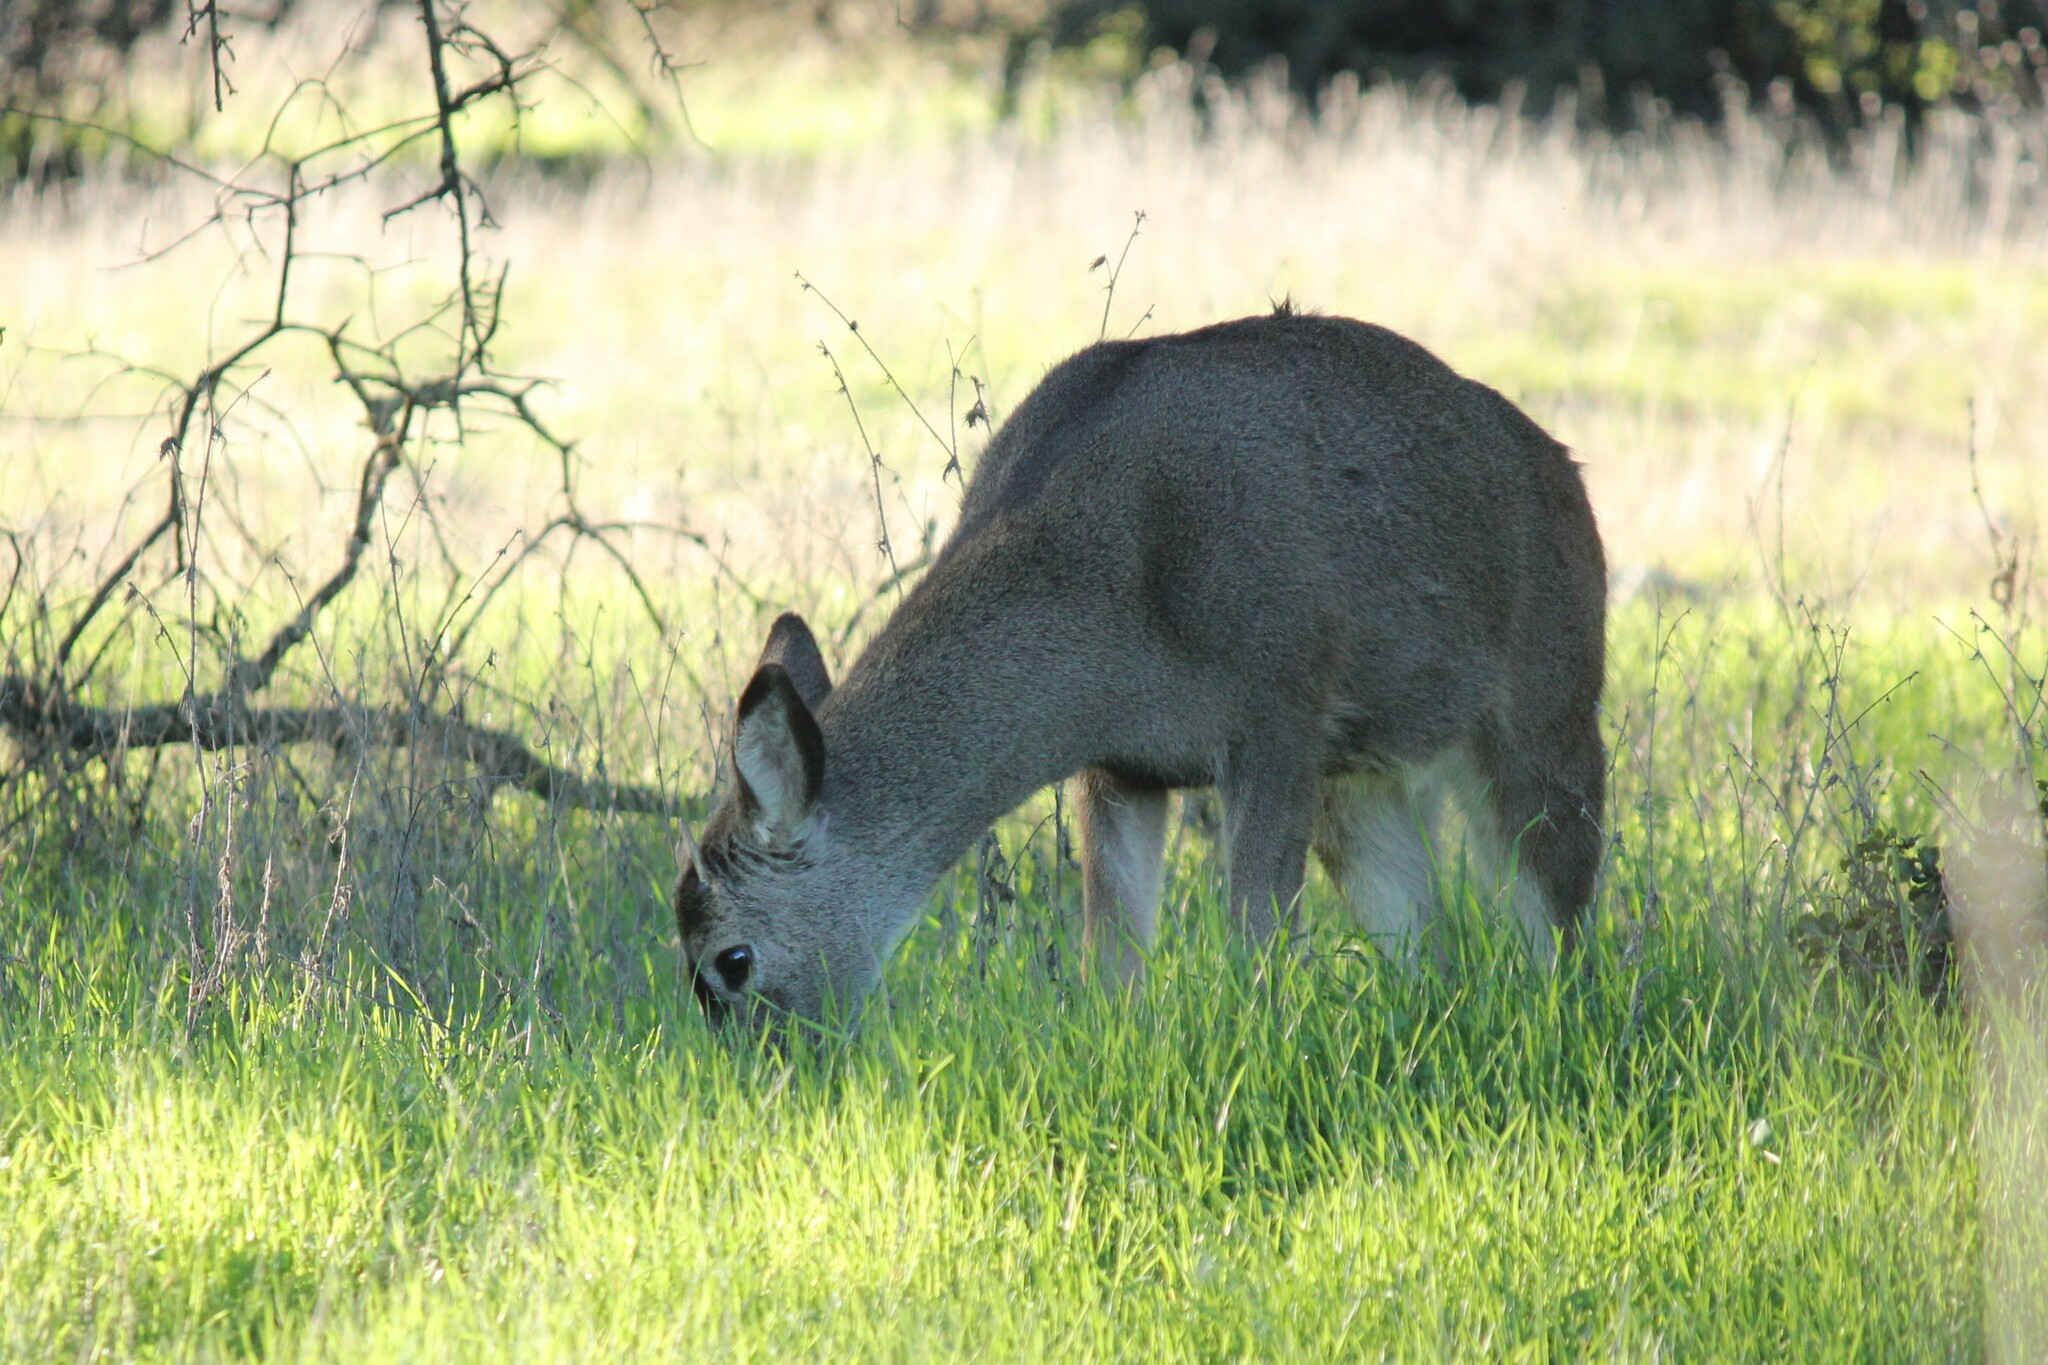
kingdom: Animalia
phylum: Chordata
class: Mammalia
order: Artiodactyla
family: Cervidae
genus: Odocoileus
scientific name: Odocoileus hemionus
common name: Mule deer
